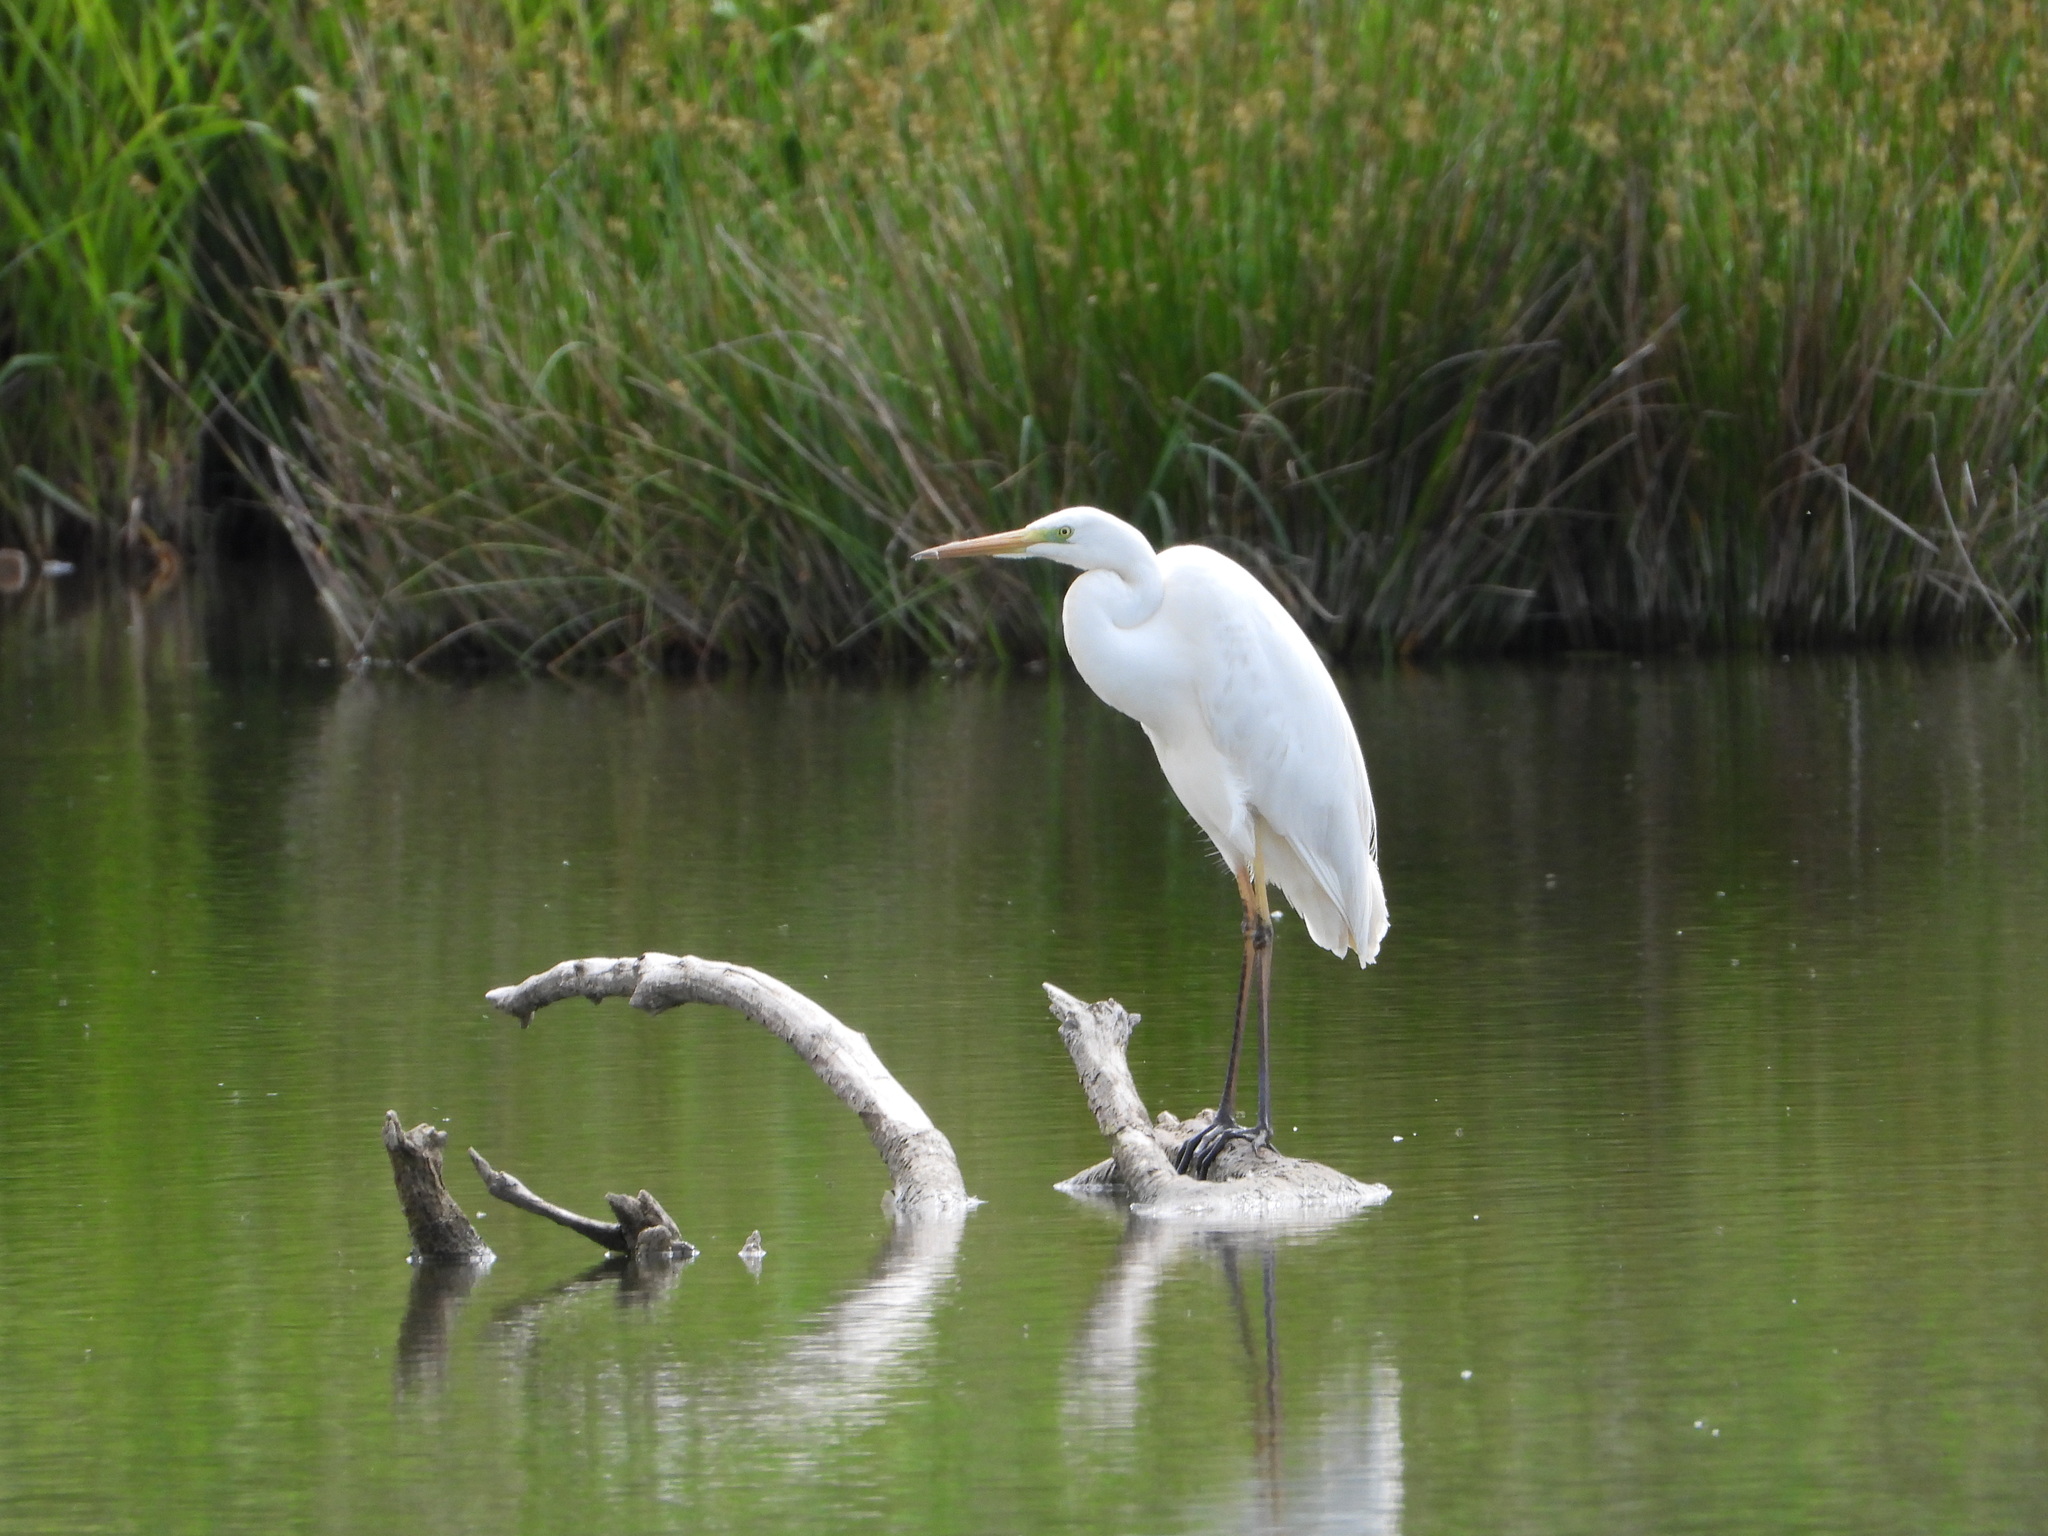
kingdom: Animalia
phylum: Chordata
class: Aves
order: Pelecaniformes
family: Ardeidae
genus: Ardea
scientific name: Ardea alba
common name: Great egret
